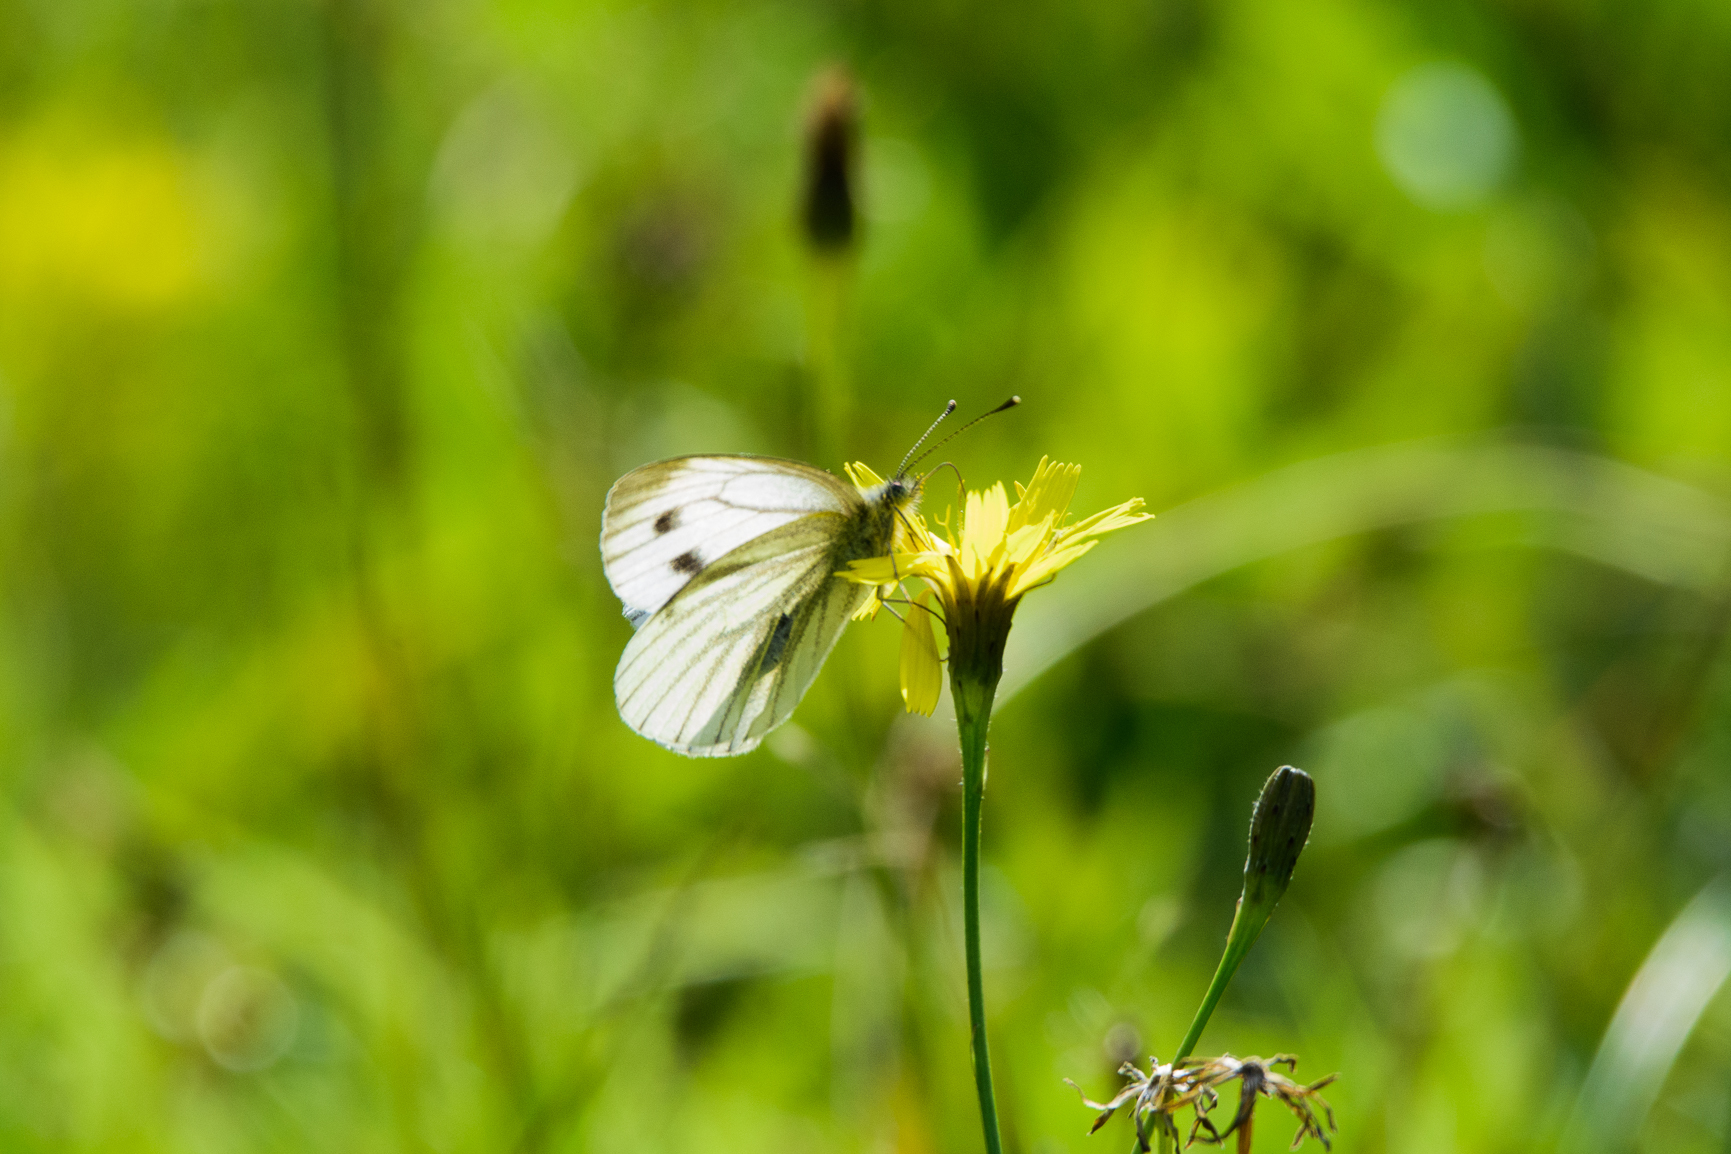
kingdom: Animalia
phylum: Arthropoda
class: Insecta
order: Lepidoptera
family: Pieridae
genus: Pieris
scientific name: Pieris napi
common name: Green-veined white
